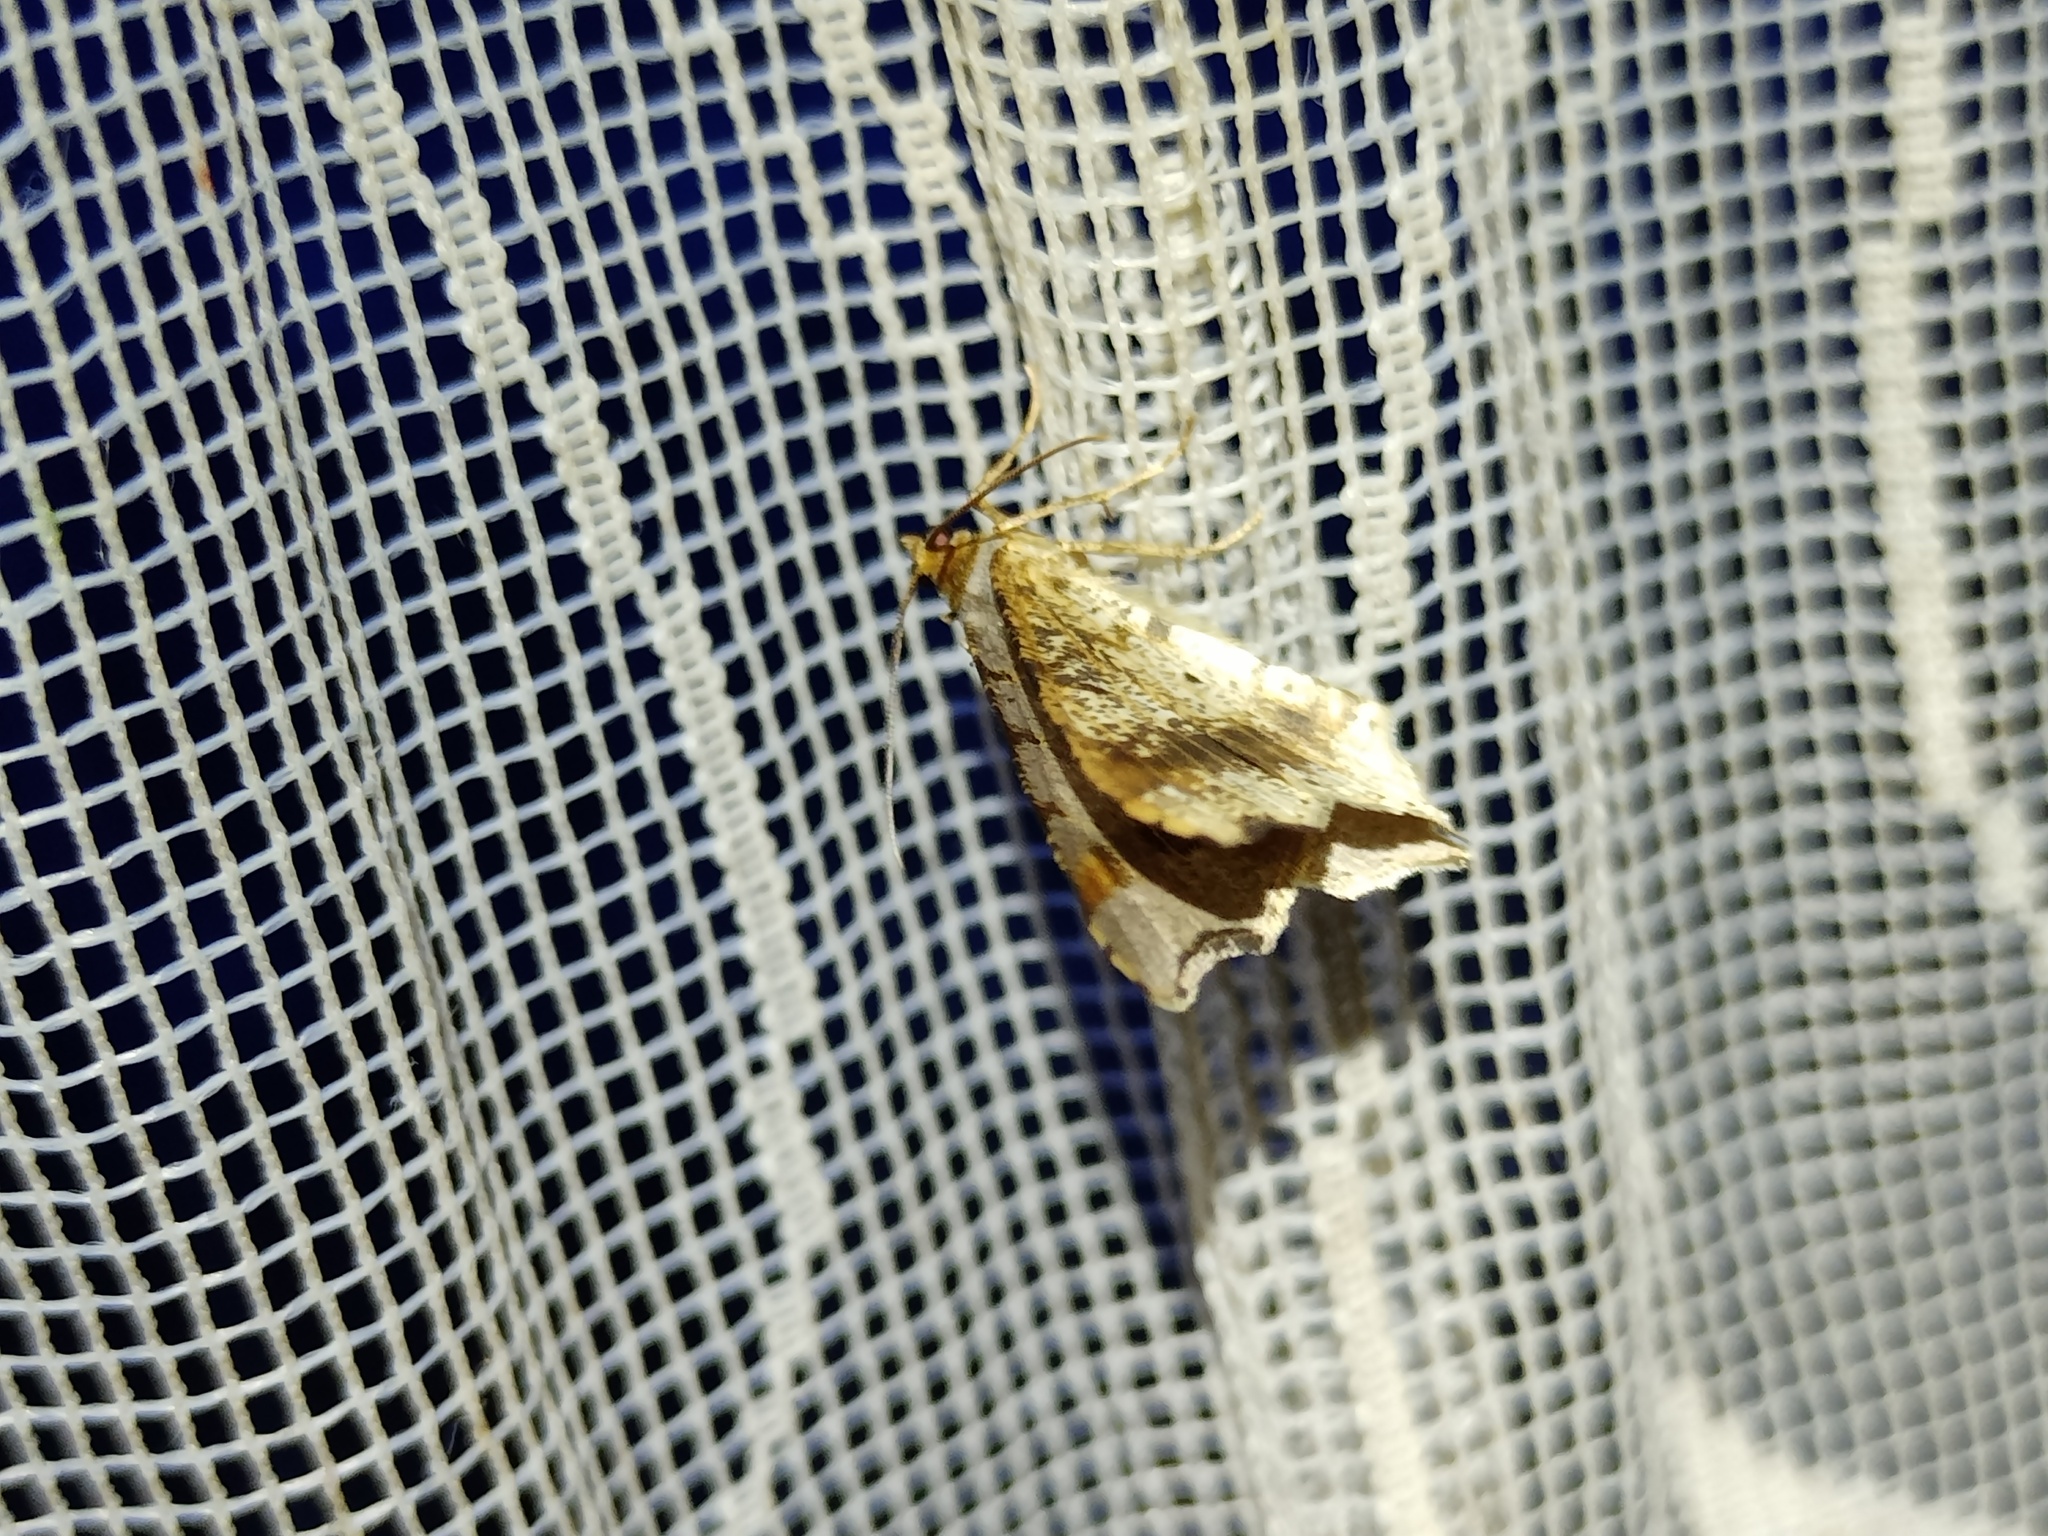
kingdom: Animalia
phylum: Arthropoda
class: Insecta
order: Lepidoptera
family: Geometridae
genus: Macaria
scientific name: Macaria alternata
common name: Sharp-angled peacock
